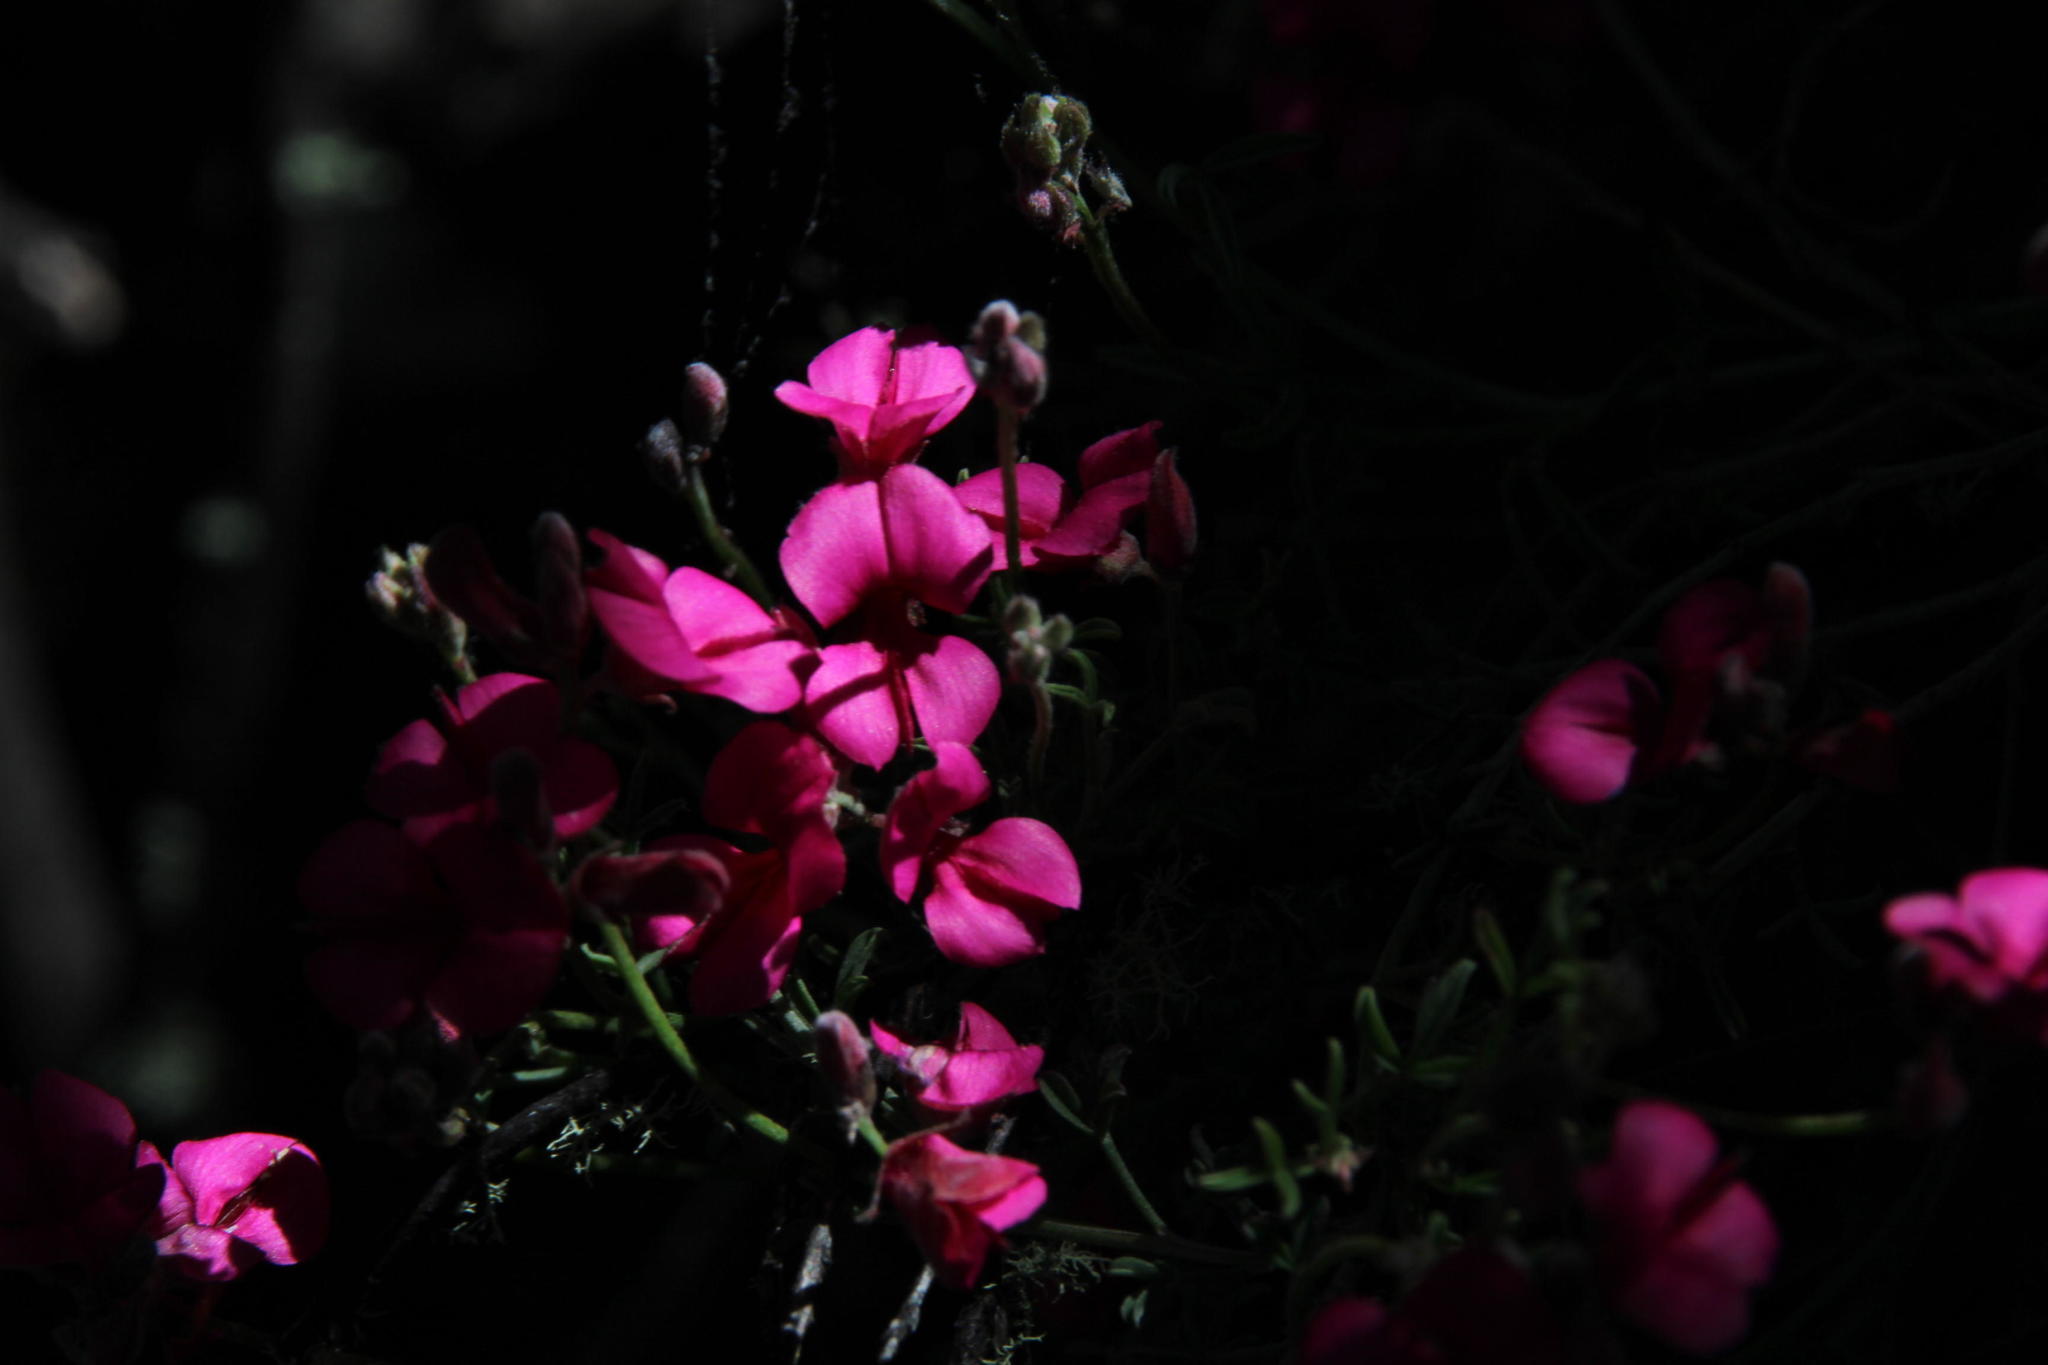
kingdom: Plantae
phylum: Tracheophyta
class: Magnoliopsida
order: Fabales
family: Fabaceae
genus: Indigofera
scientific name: Indigofera meyeriana
